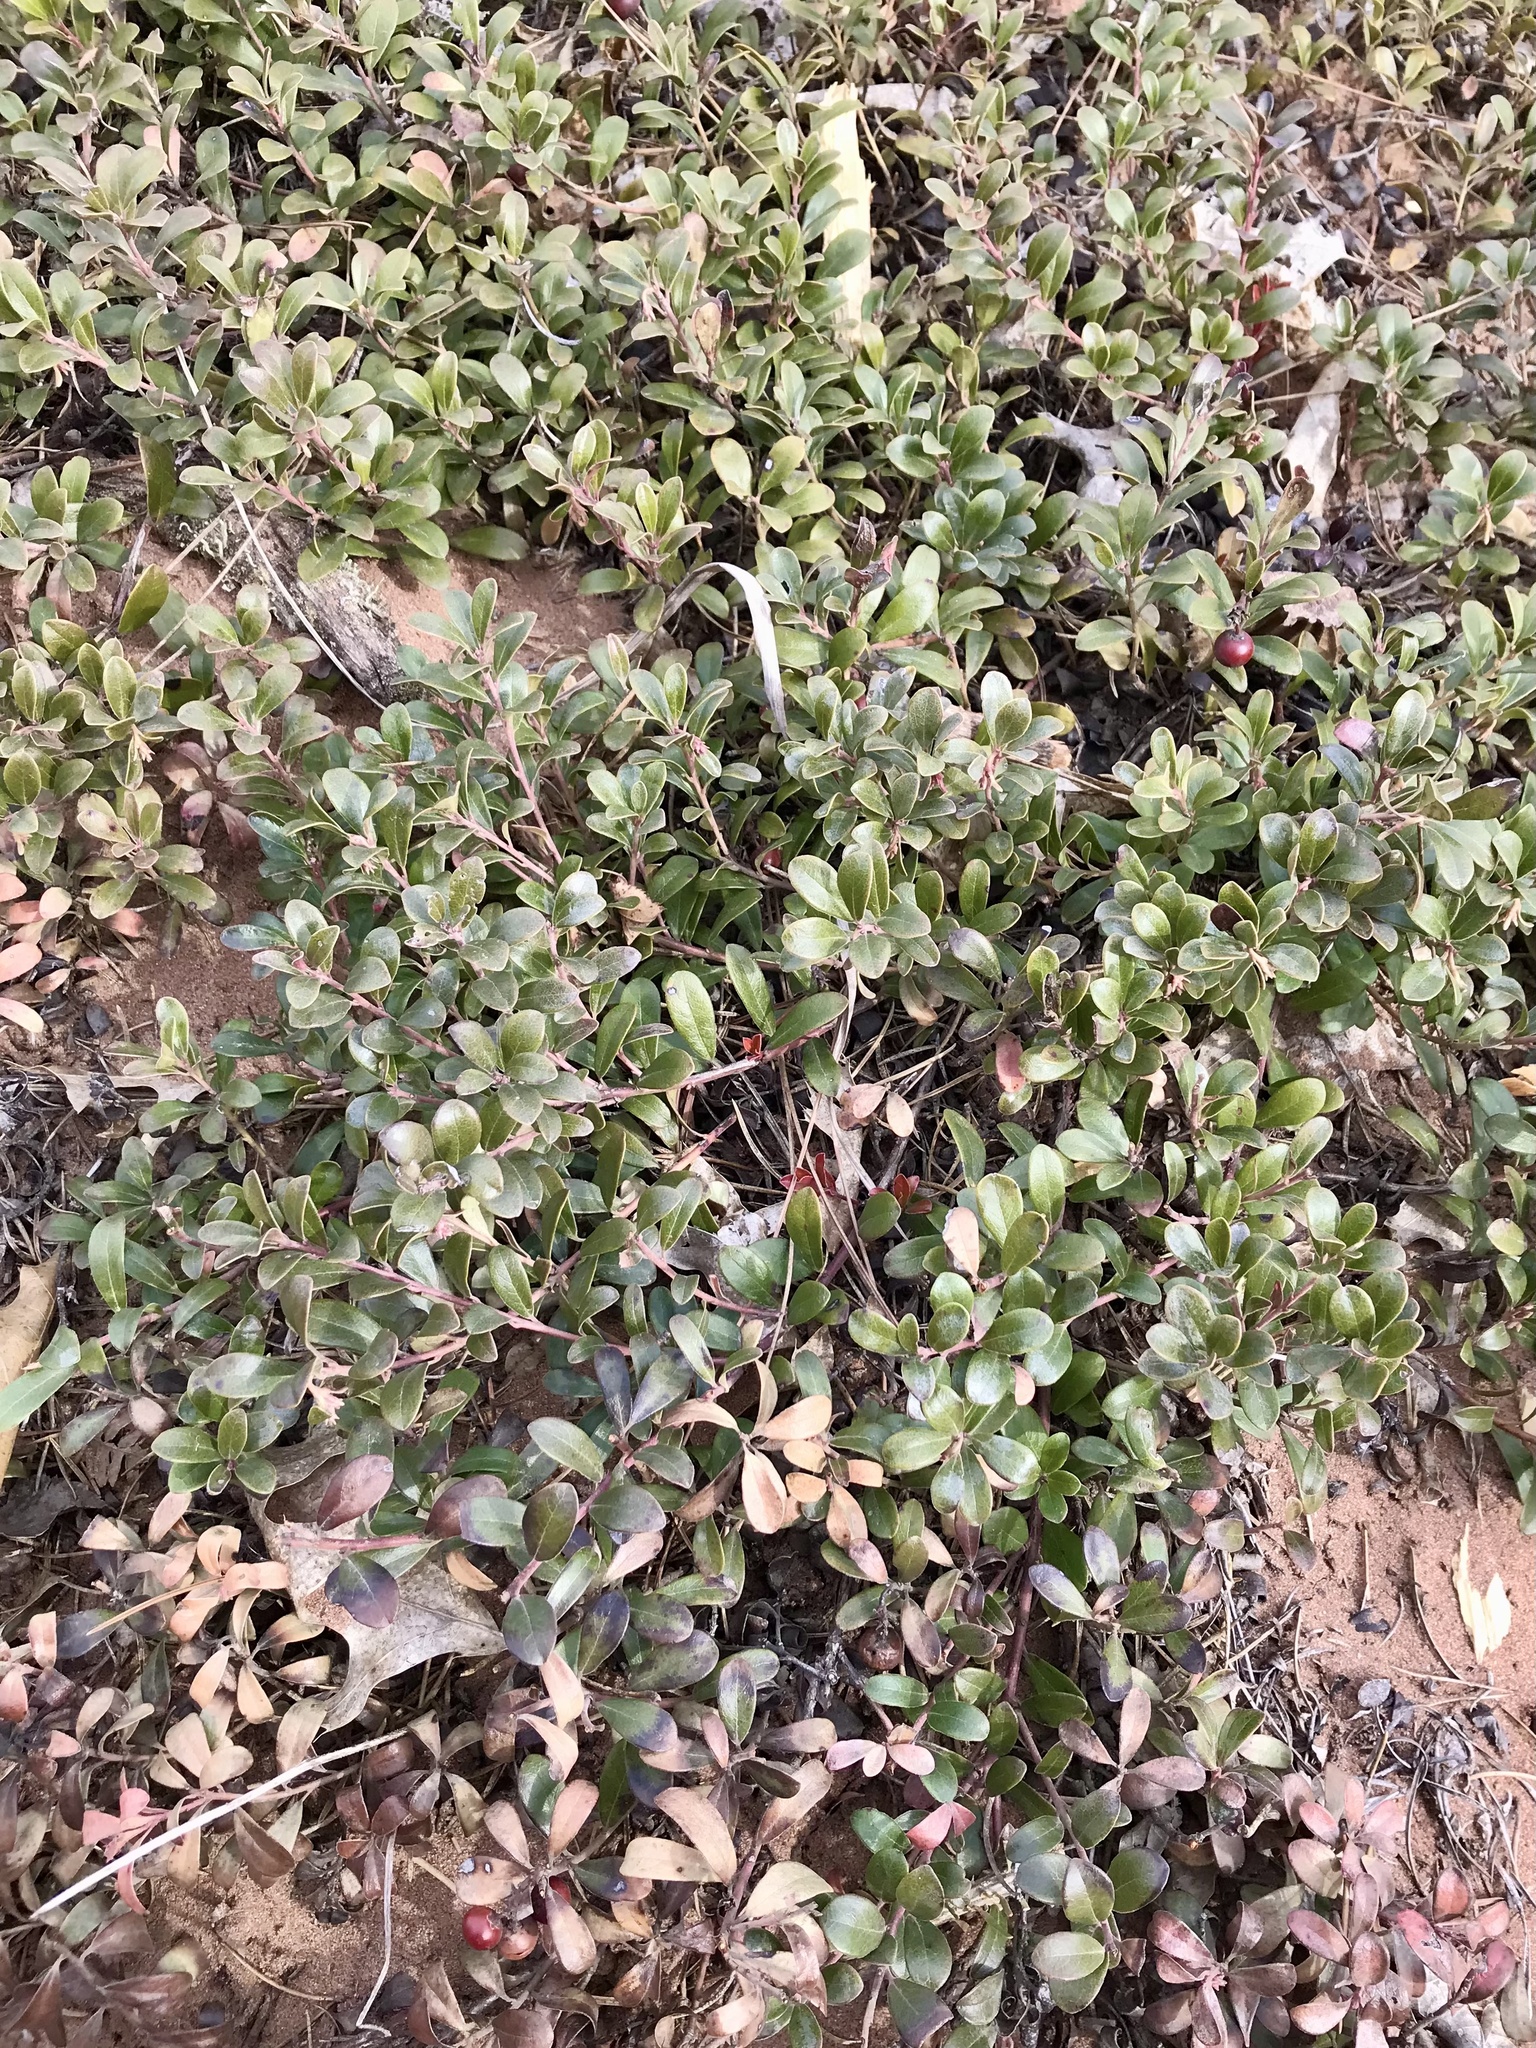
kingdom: Plantae
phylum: Tracheophyta
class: Magnoliopsida
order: Ericales
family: Ericaceae
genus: Arctostaphylos
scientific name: Arctostaphylos uva-ursi
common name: Bearberry
